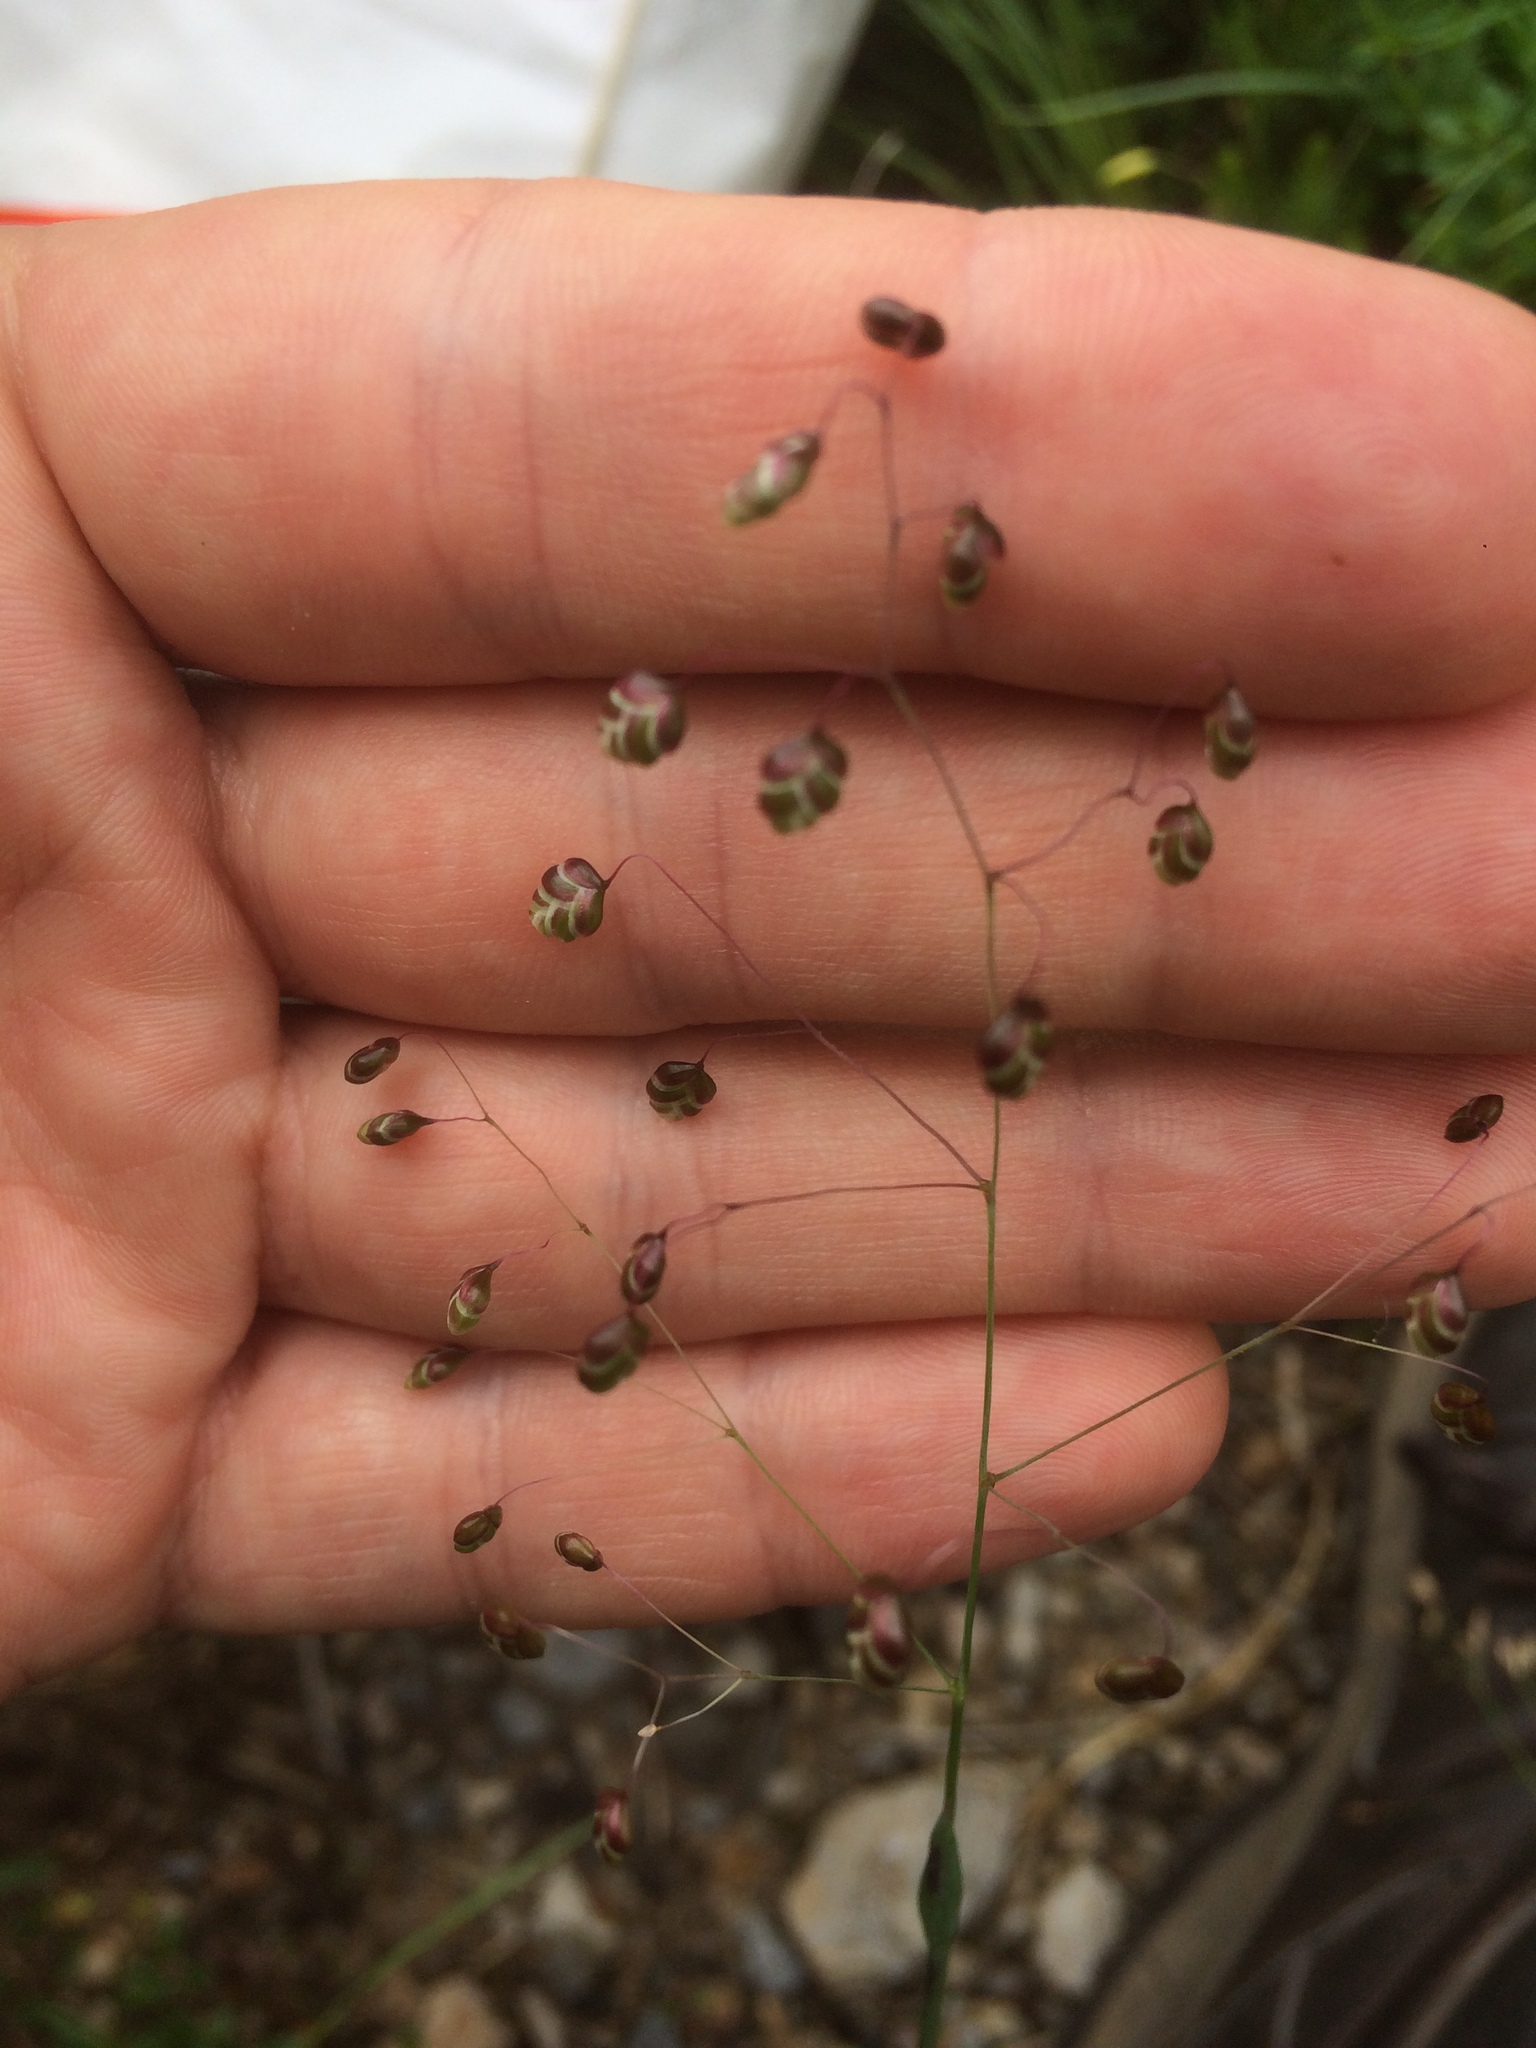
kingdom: Plantae
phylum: Tracheophyta
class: Liliopsida
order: Poales
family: Poaceae
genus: Briza
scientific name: Briza media
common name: Quaking grass
